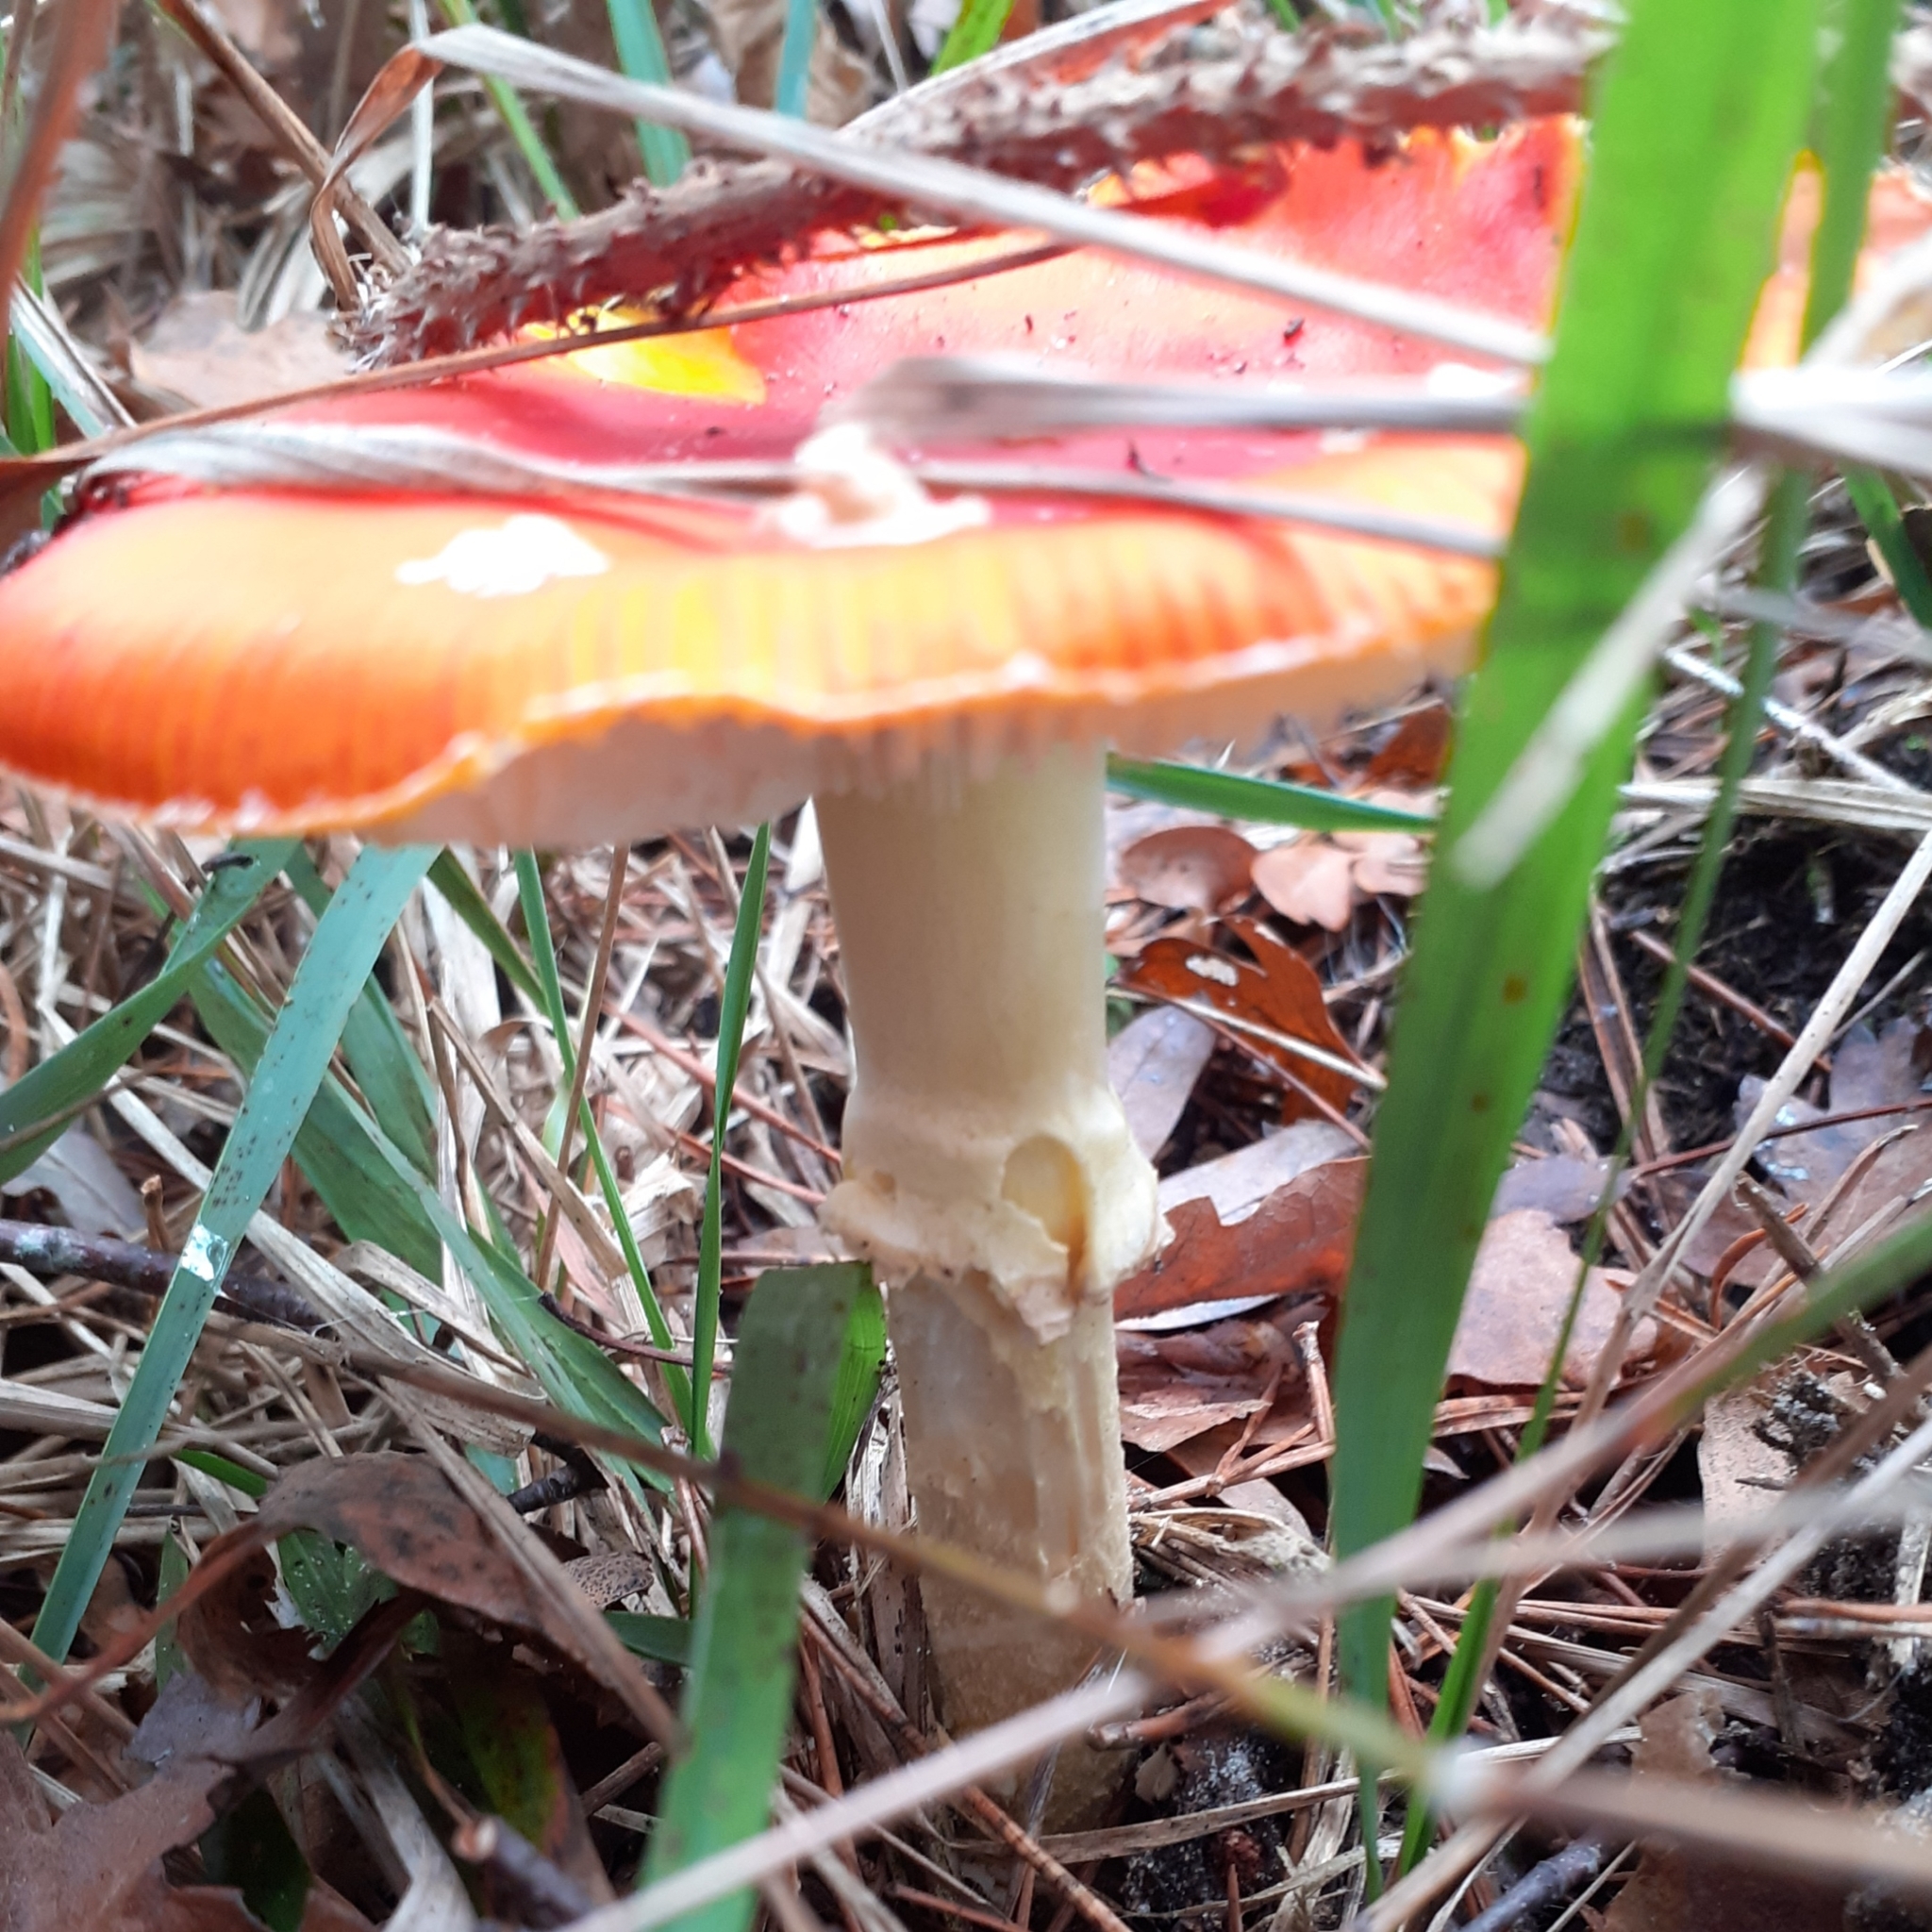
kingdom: Fungi
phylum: Basidiomycota
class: Agaricomycetes
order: Agaricales
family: Amanitaceae
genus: Amanita
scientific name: Amanita muscaria
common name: Fly agaric
